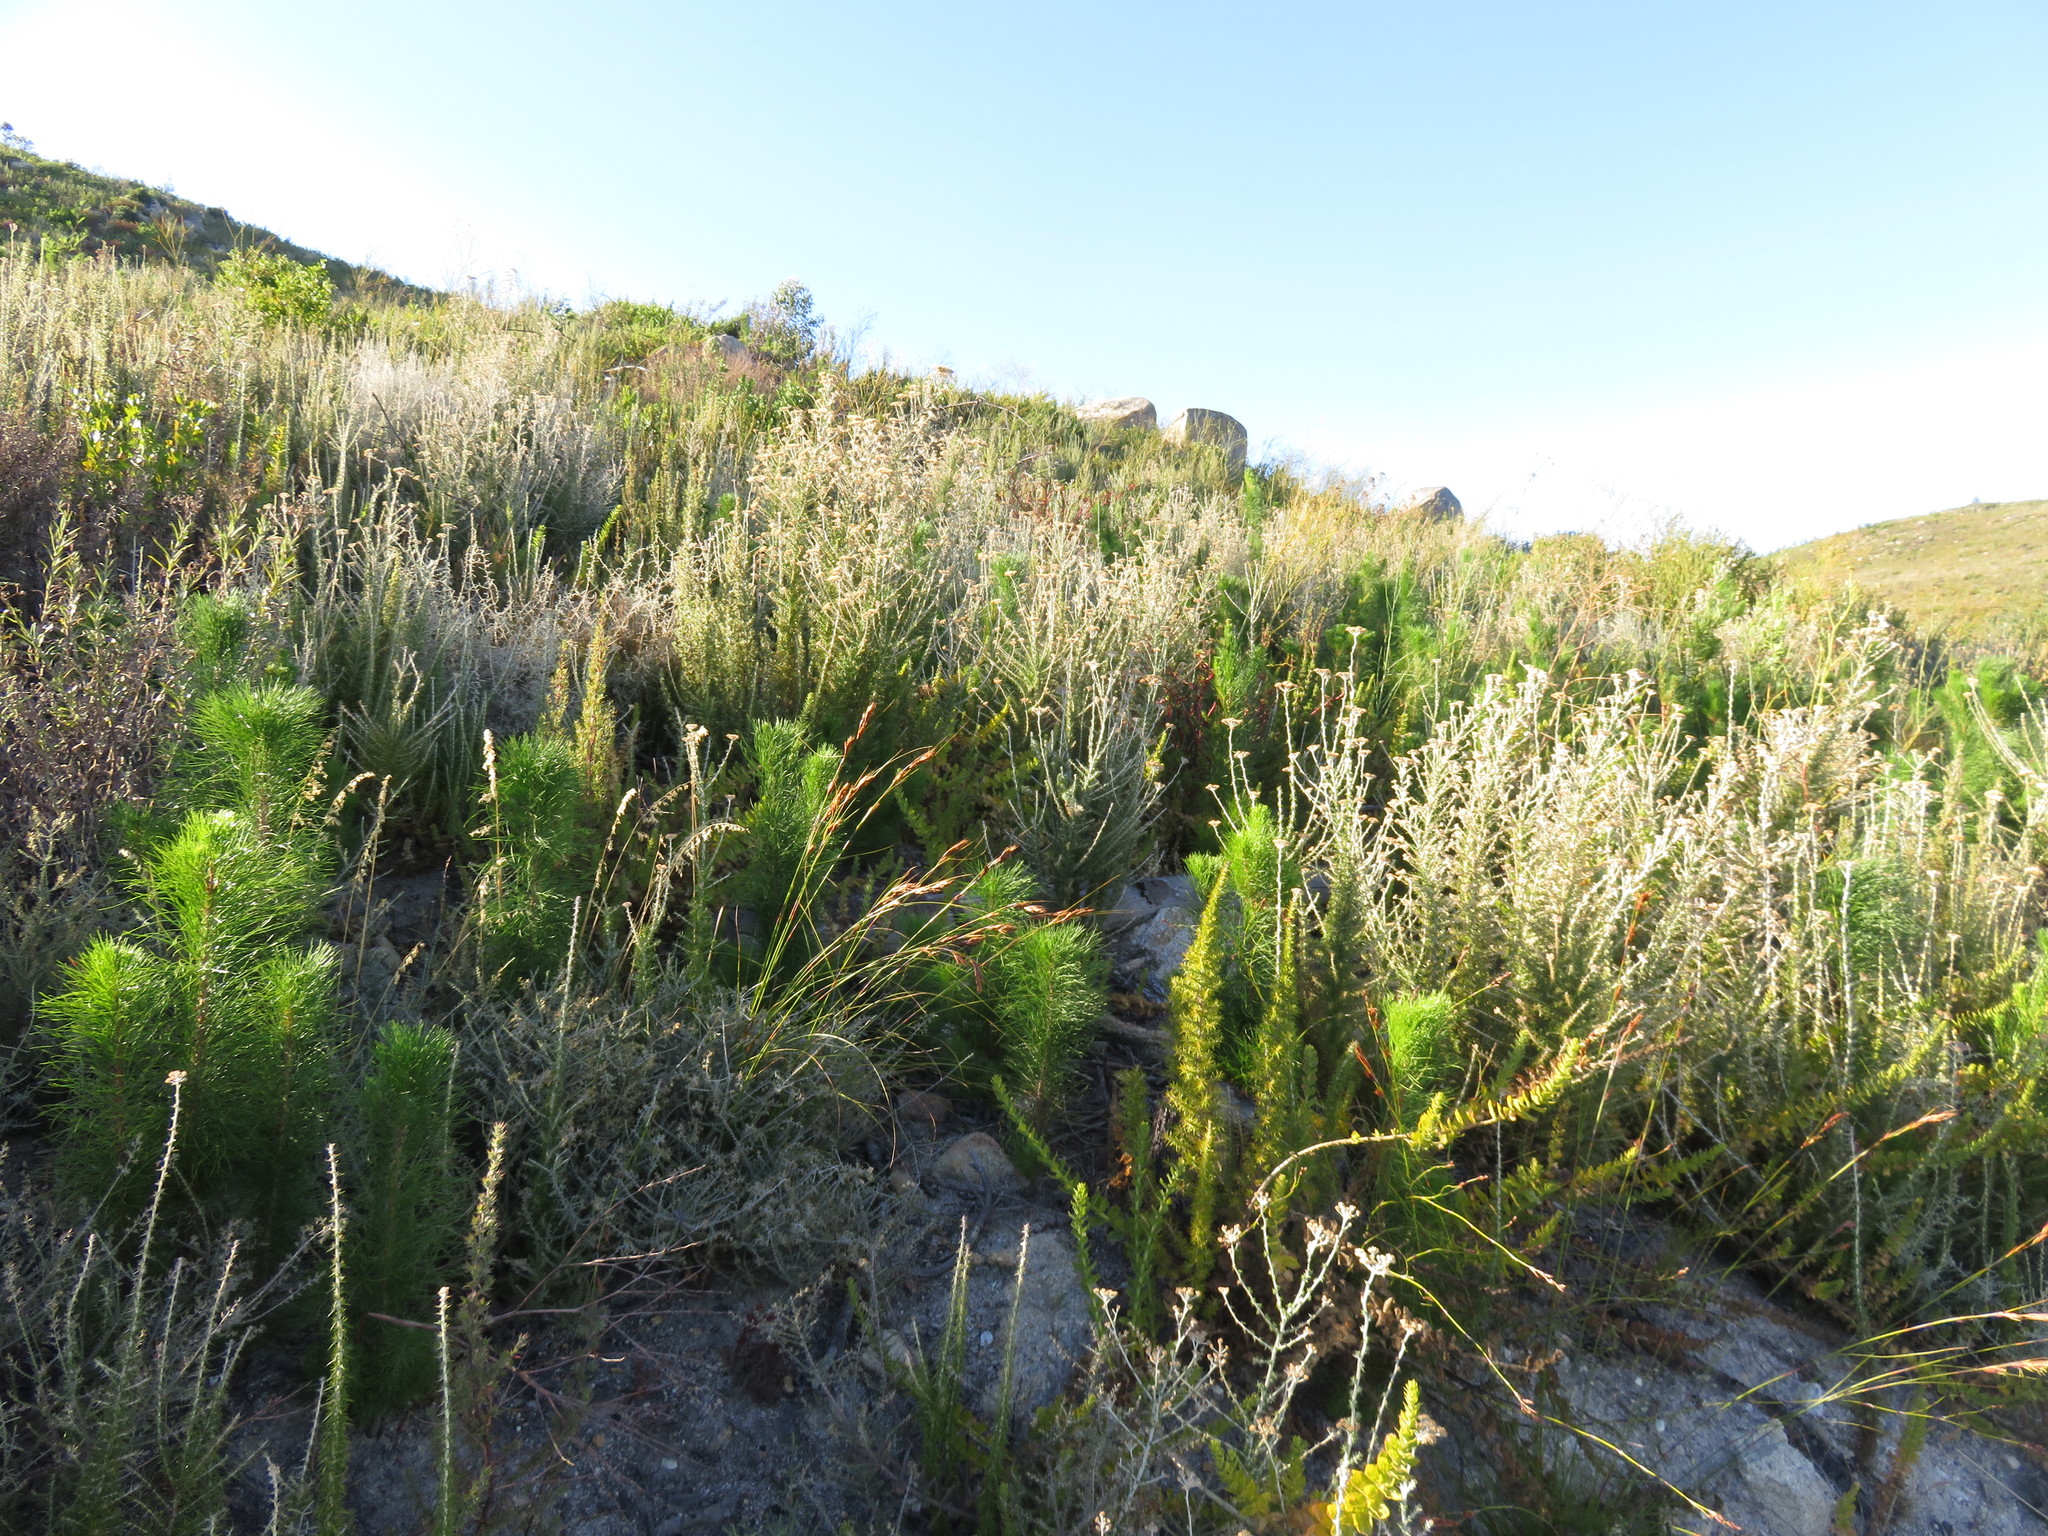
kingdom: Plantae
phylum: Tracheophyta
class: Magnoliopsida
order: Asterales
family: Asteraceae
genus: Metalasia
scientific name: Metalasia densa
